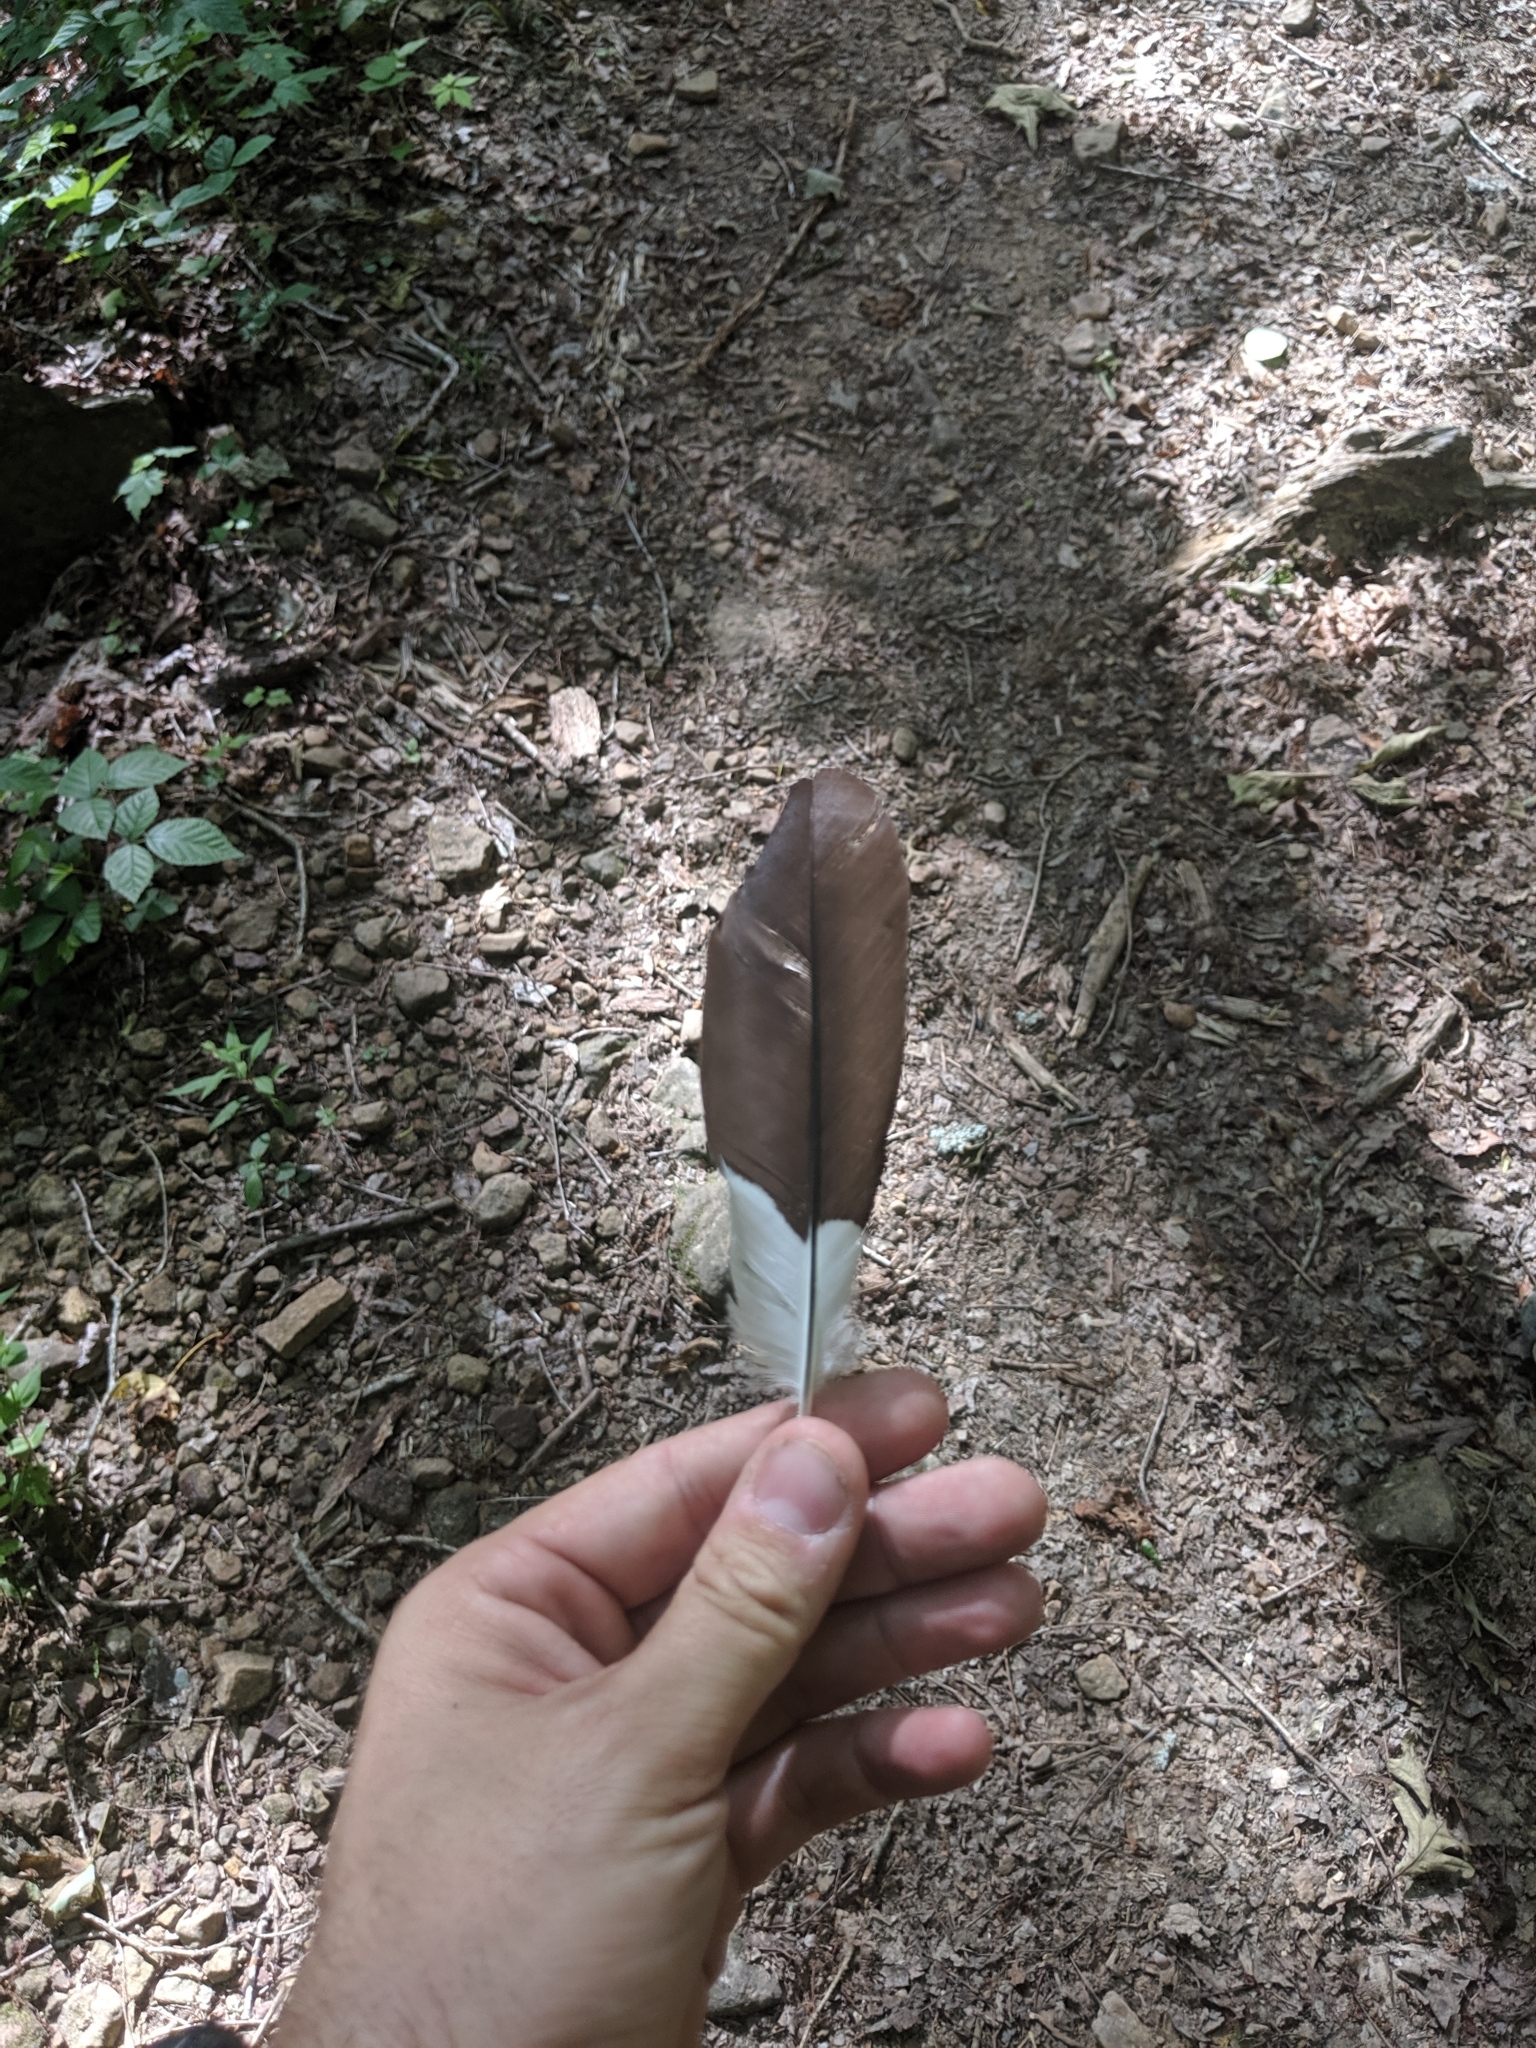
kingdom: Animalia
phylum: Chordata
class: Aves
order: Piciformes
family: Picidae
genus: Dryocopus
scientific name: Dryocopus pileatus
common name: Pileated woodpecker
